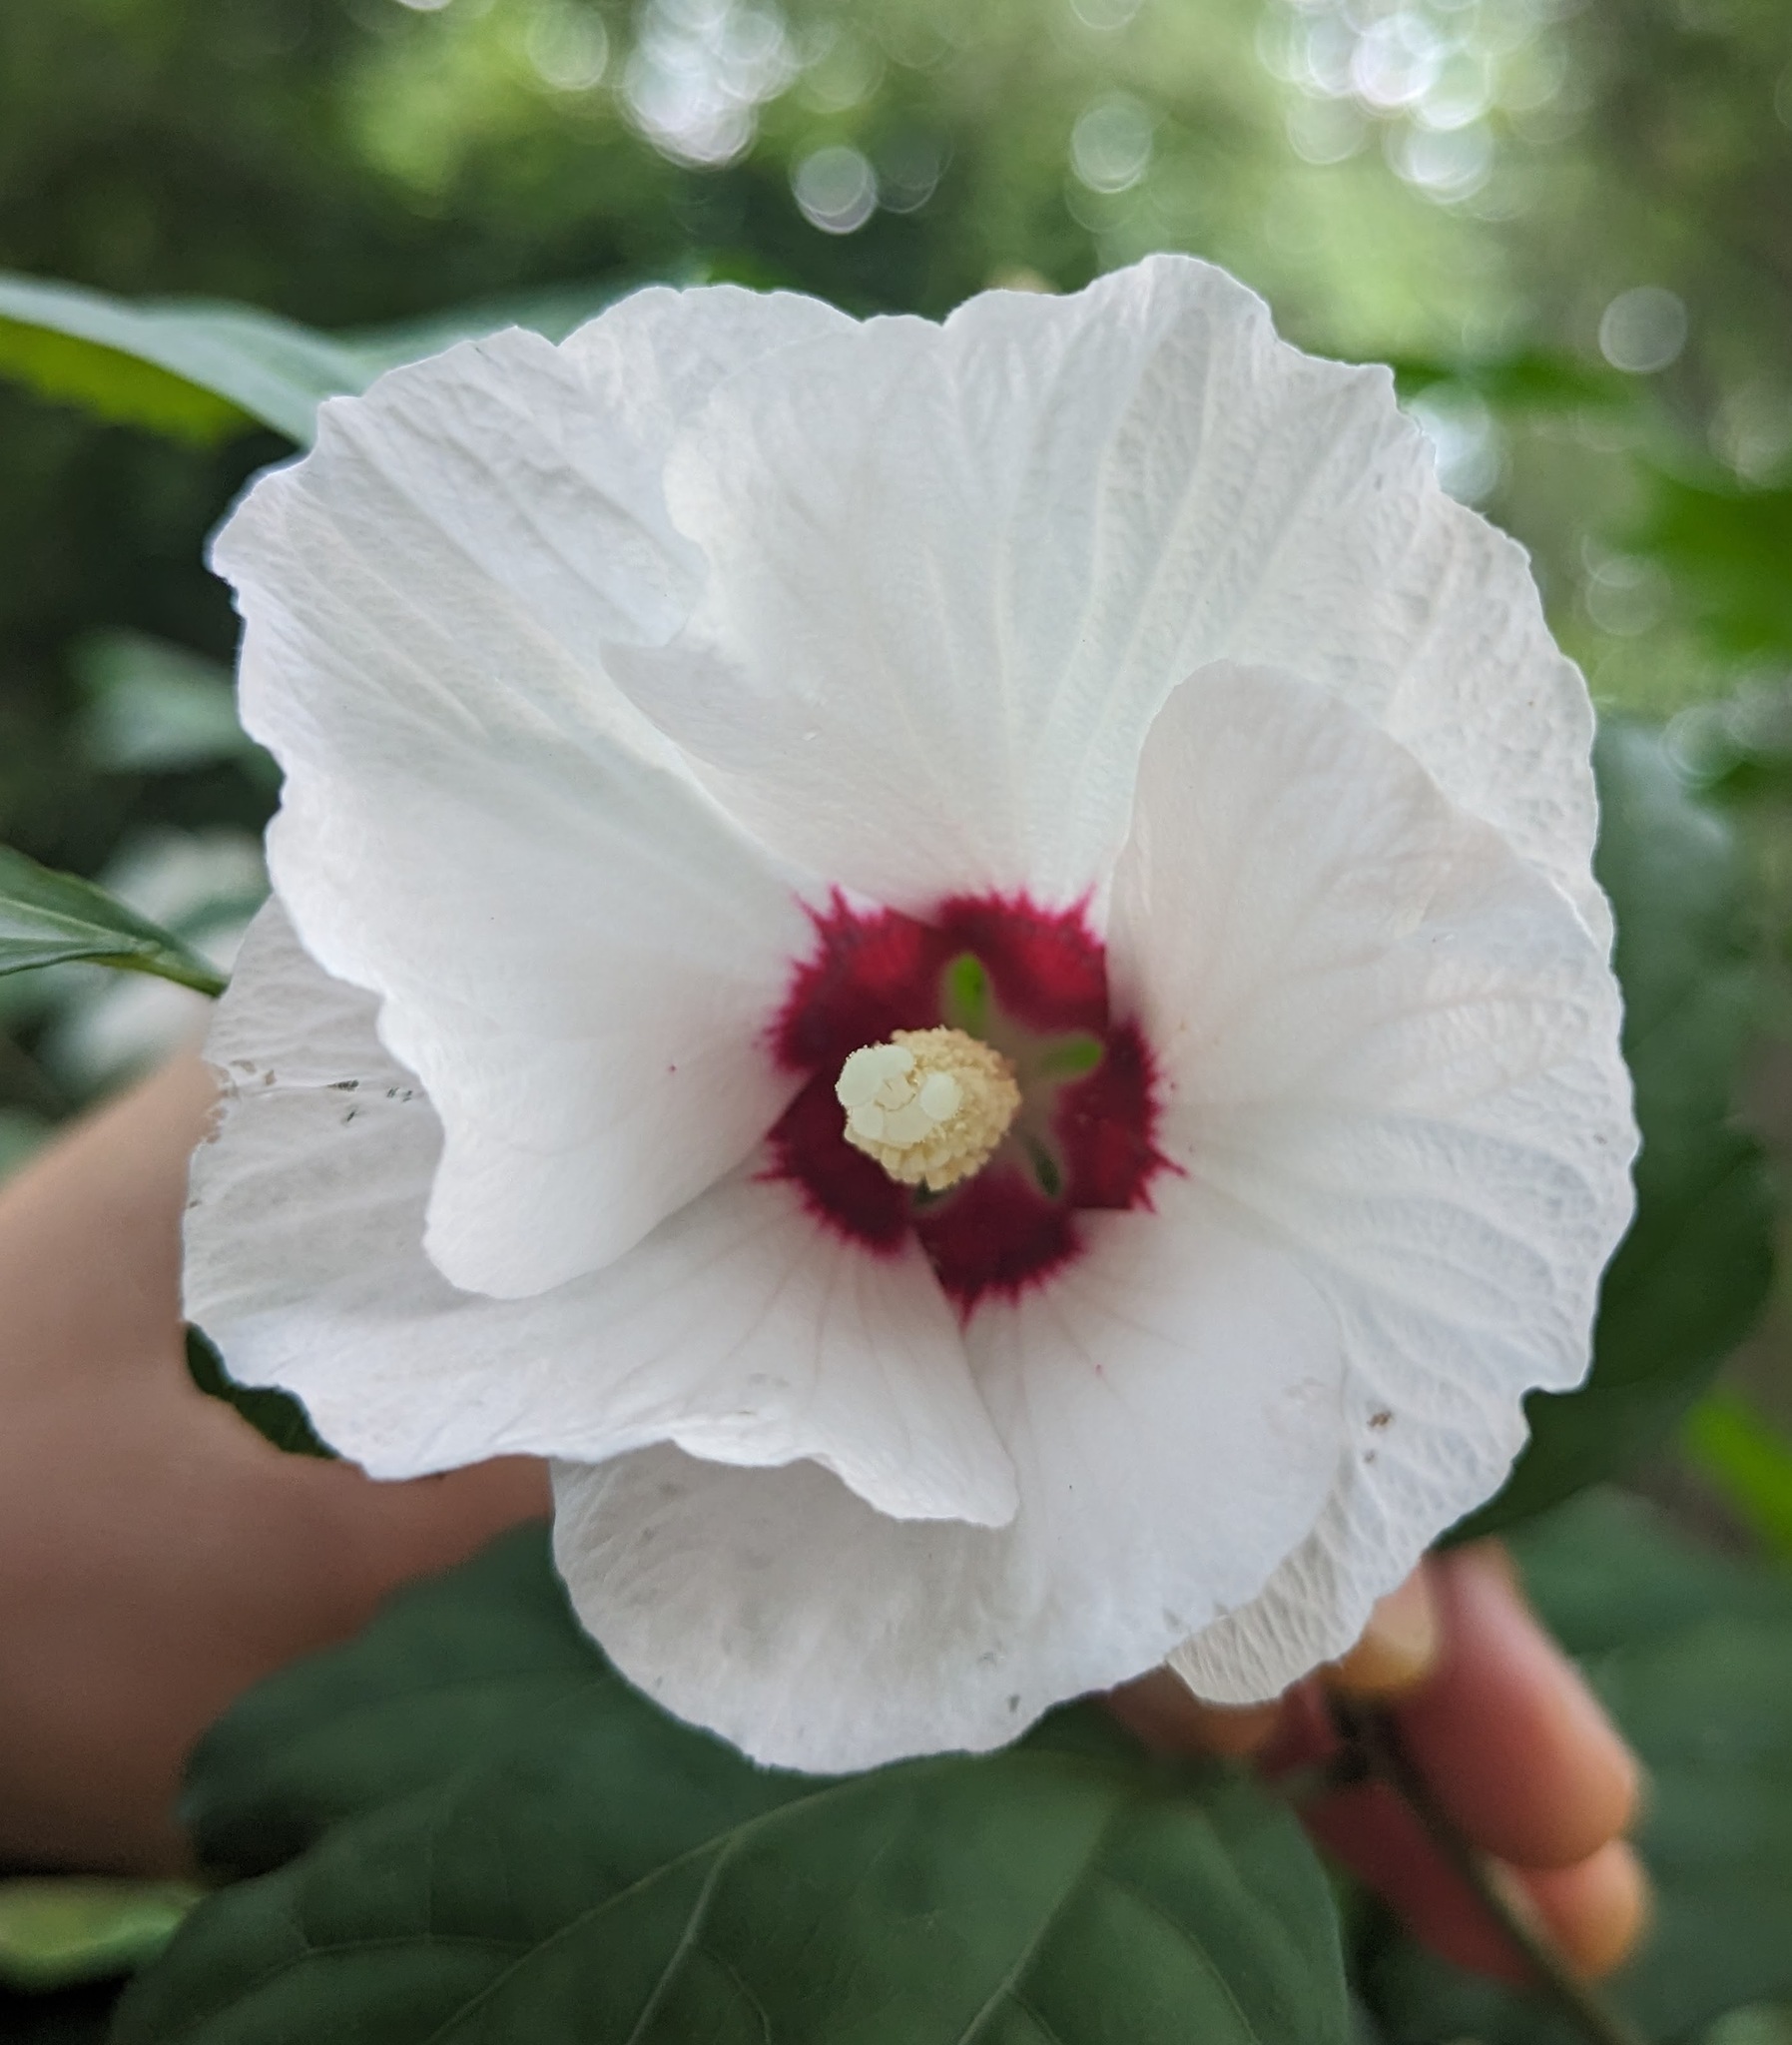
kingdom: Plantae
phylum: Tracheophyta
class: Magnoliopsida
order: Malvales
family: Malvaceae
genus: Hibiscus
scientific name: Hibiscus syriacus
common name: Syrian ketmia
